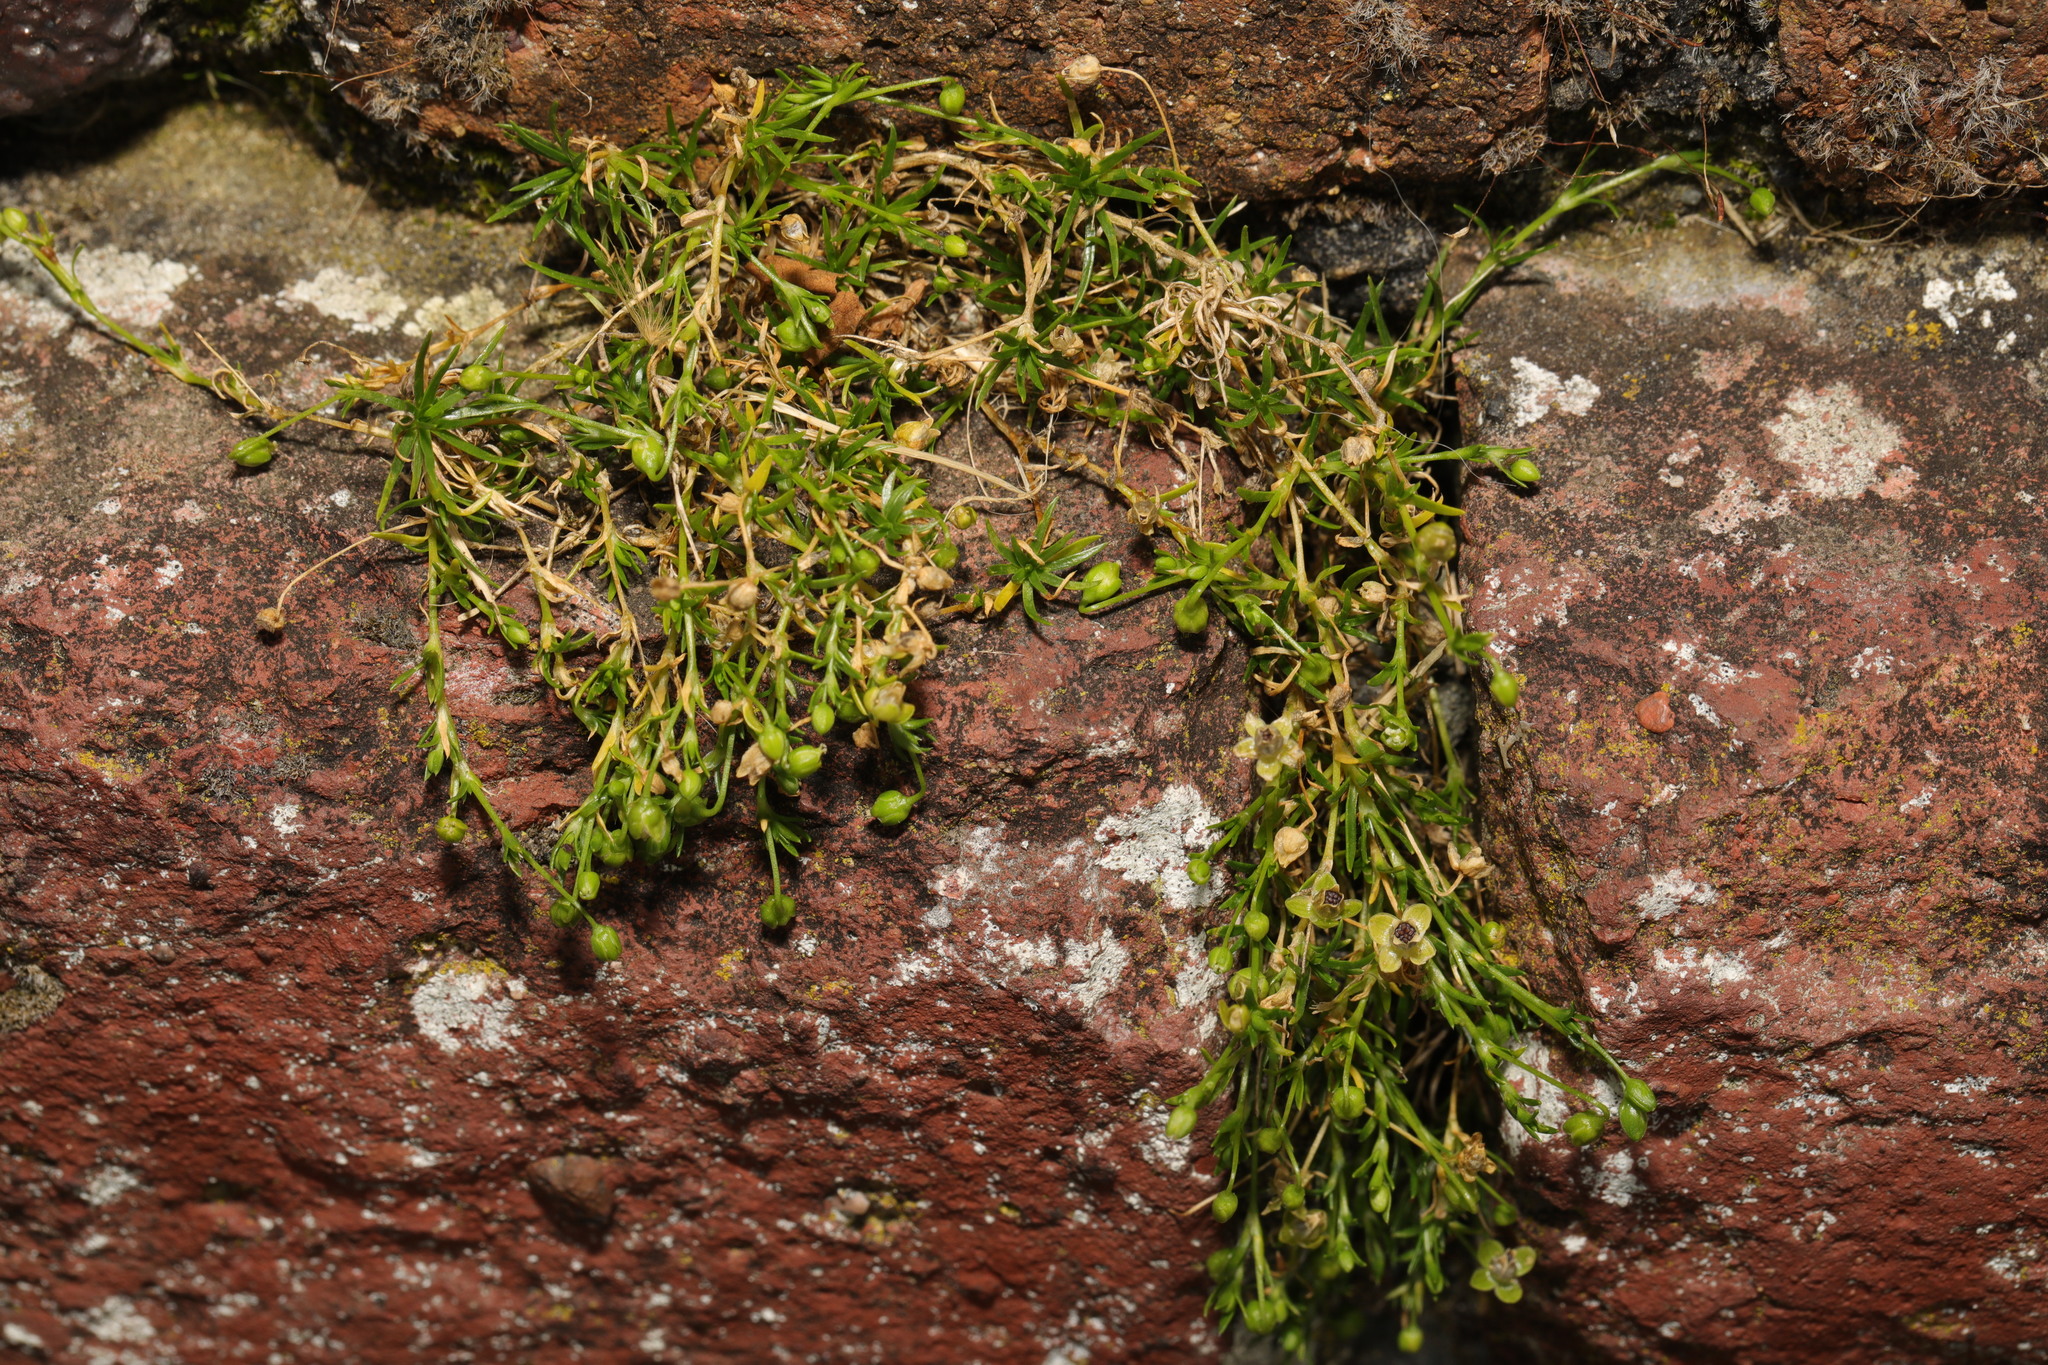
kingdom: Plantae
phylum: Tracheophyta
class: Magnoliopsida
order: Caryophyllales
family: Caryophyllaceae
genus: Sagina
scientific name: Sagina procumbens
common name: Procumbent pearlwort
